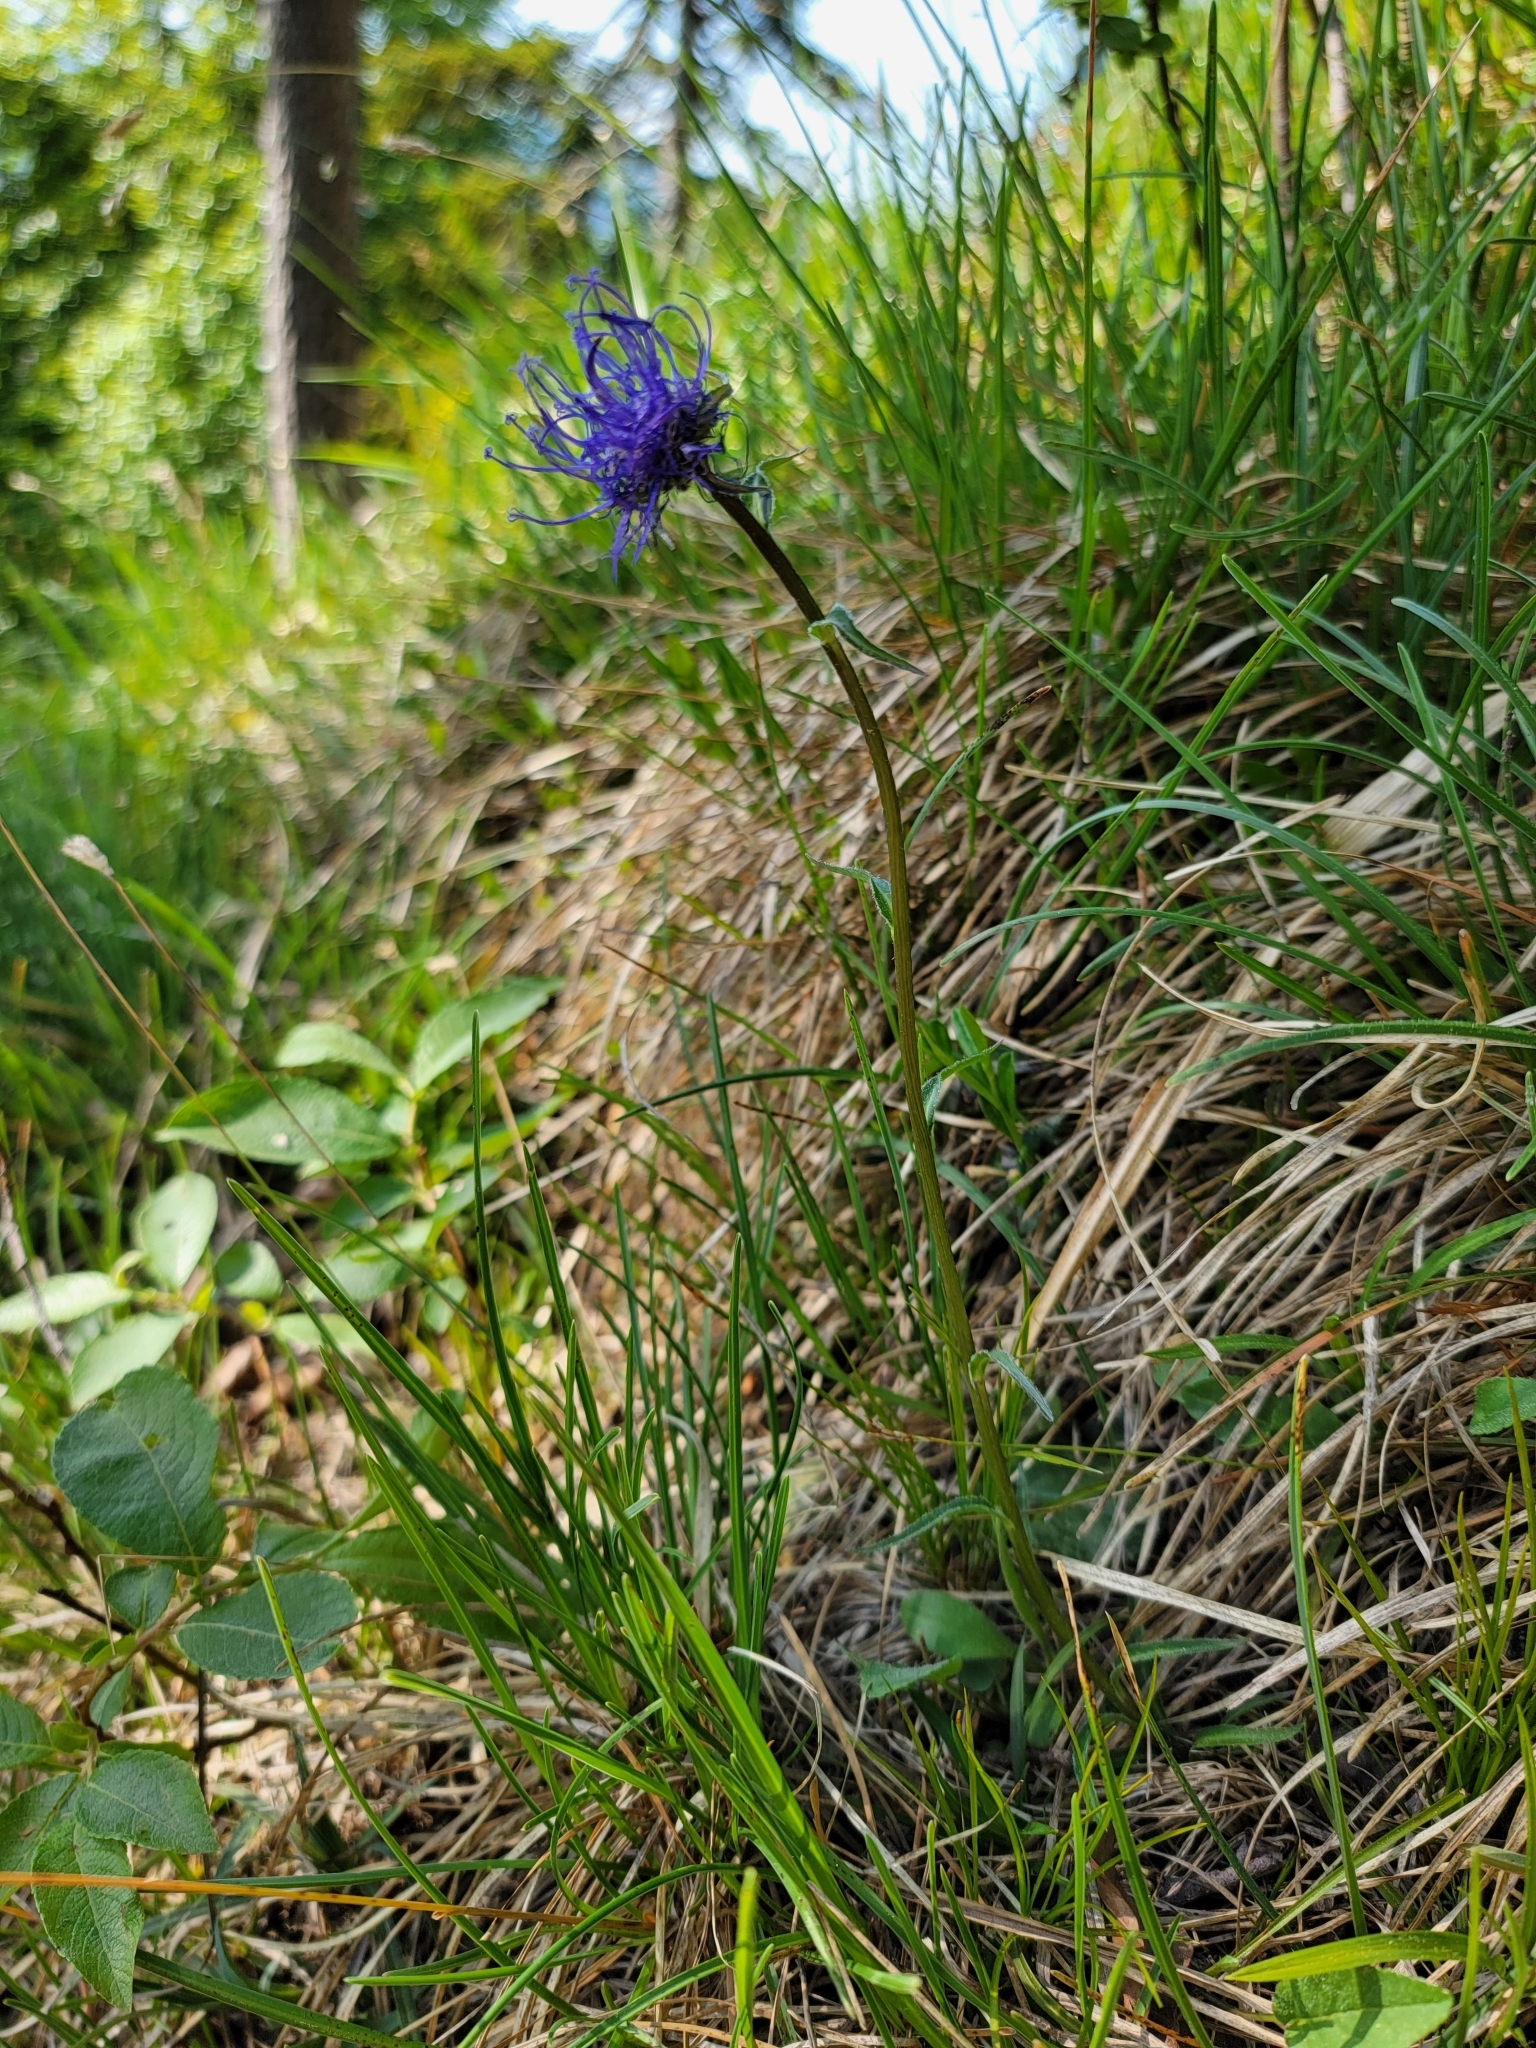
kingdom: Plantae
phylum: Tracheophyta
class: Magnoliopsida
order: Asterales
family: Campanulaceae
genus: Phyteuma
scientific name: Phyteuma orbiculare
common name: Round-headed rampion
